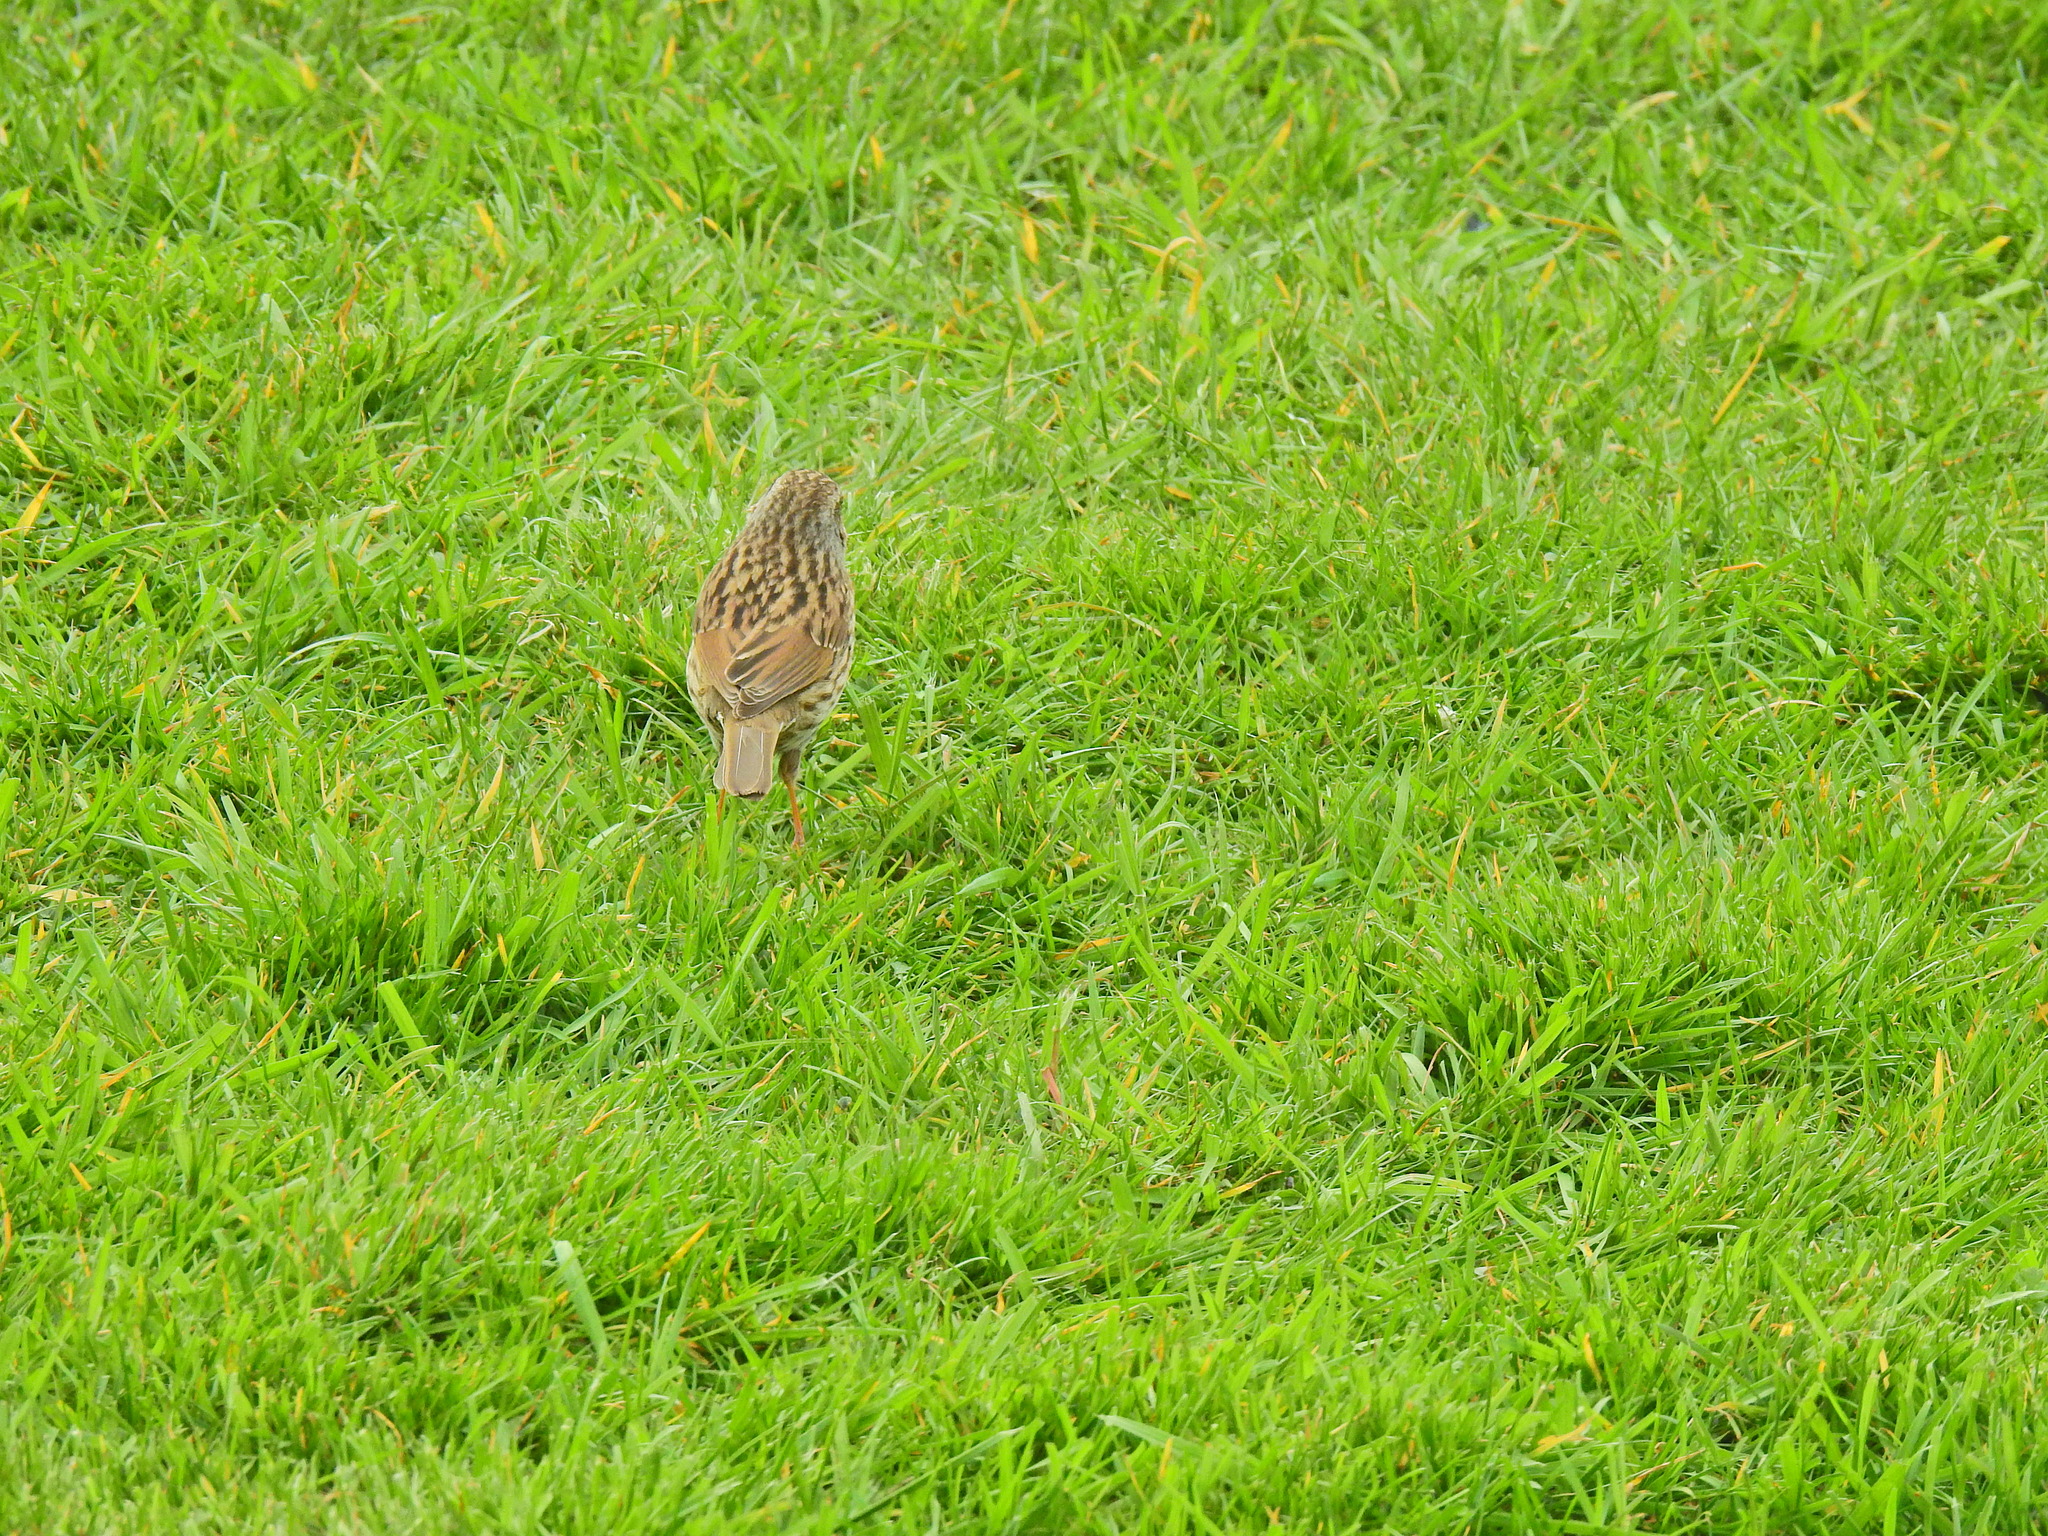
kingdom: Animalia
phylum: Chordata
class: Aves
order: Passeriformes
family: Prunellidae
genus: Prunella
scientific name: Prunella modularis
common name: Dunnock
